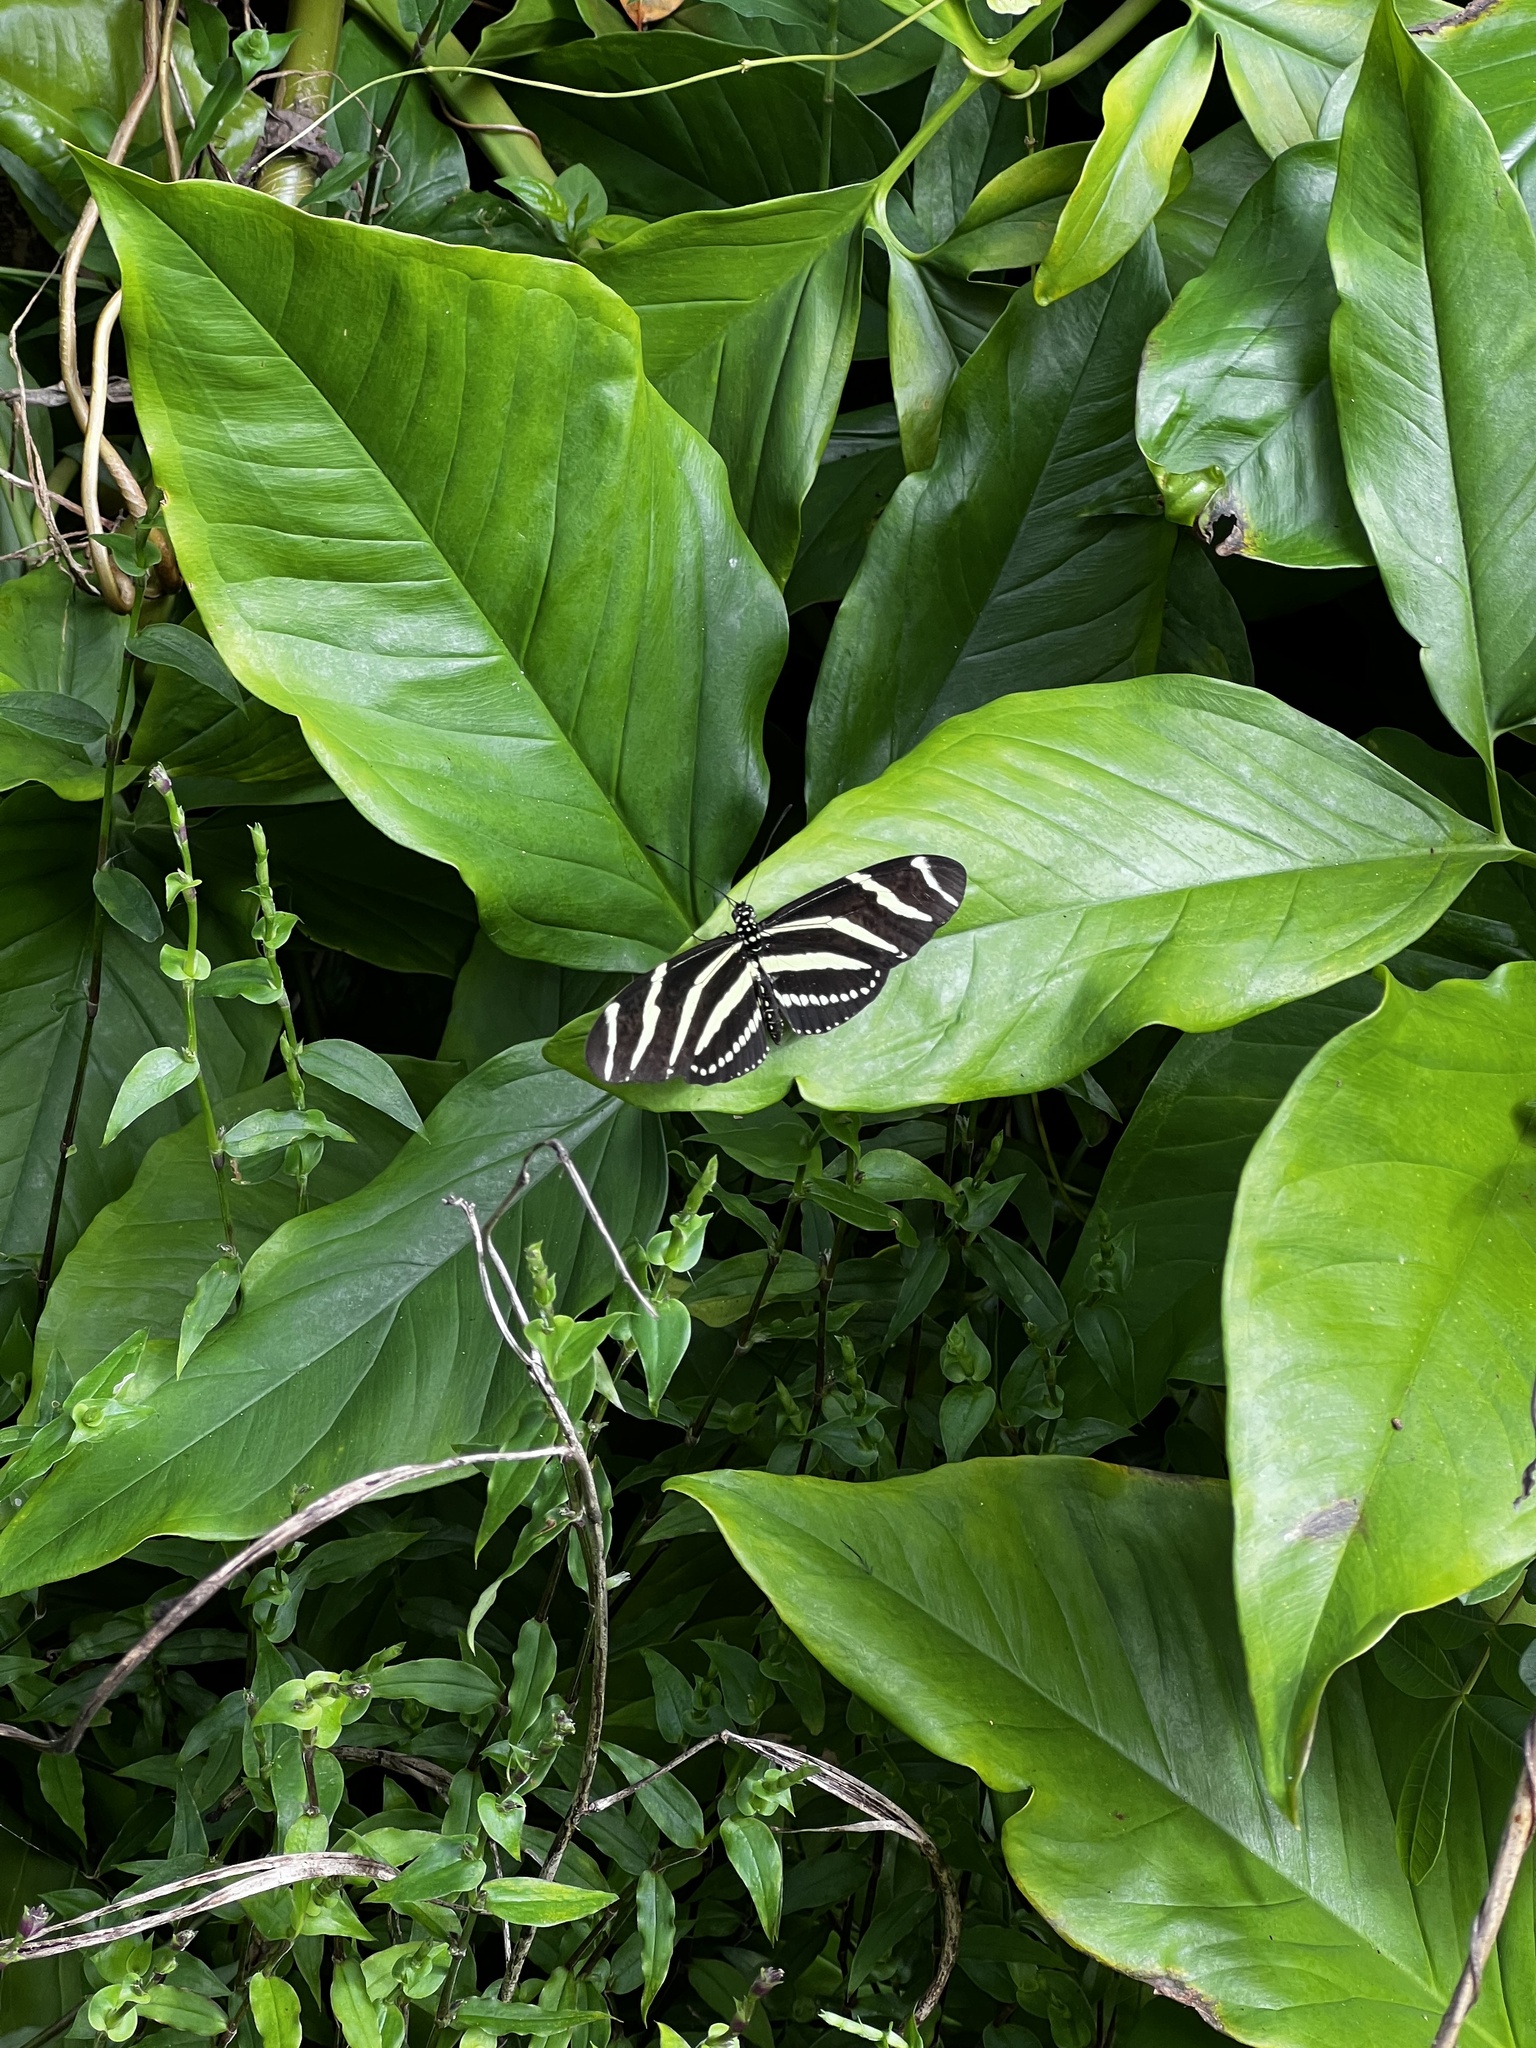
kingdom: Animalia
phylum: Arthropoda
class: Insecta
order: Lepidoptera
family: Nymphalidae
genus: Heliconius
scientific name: Heliconius charithonia
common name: Zebra long wing
